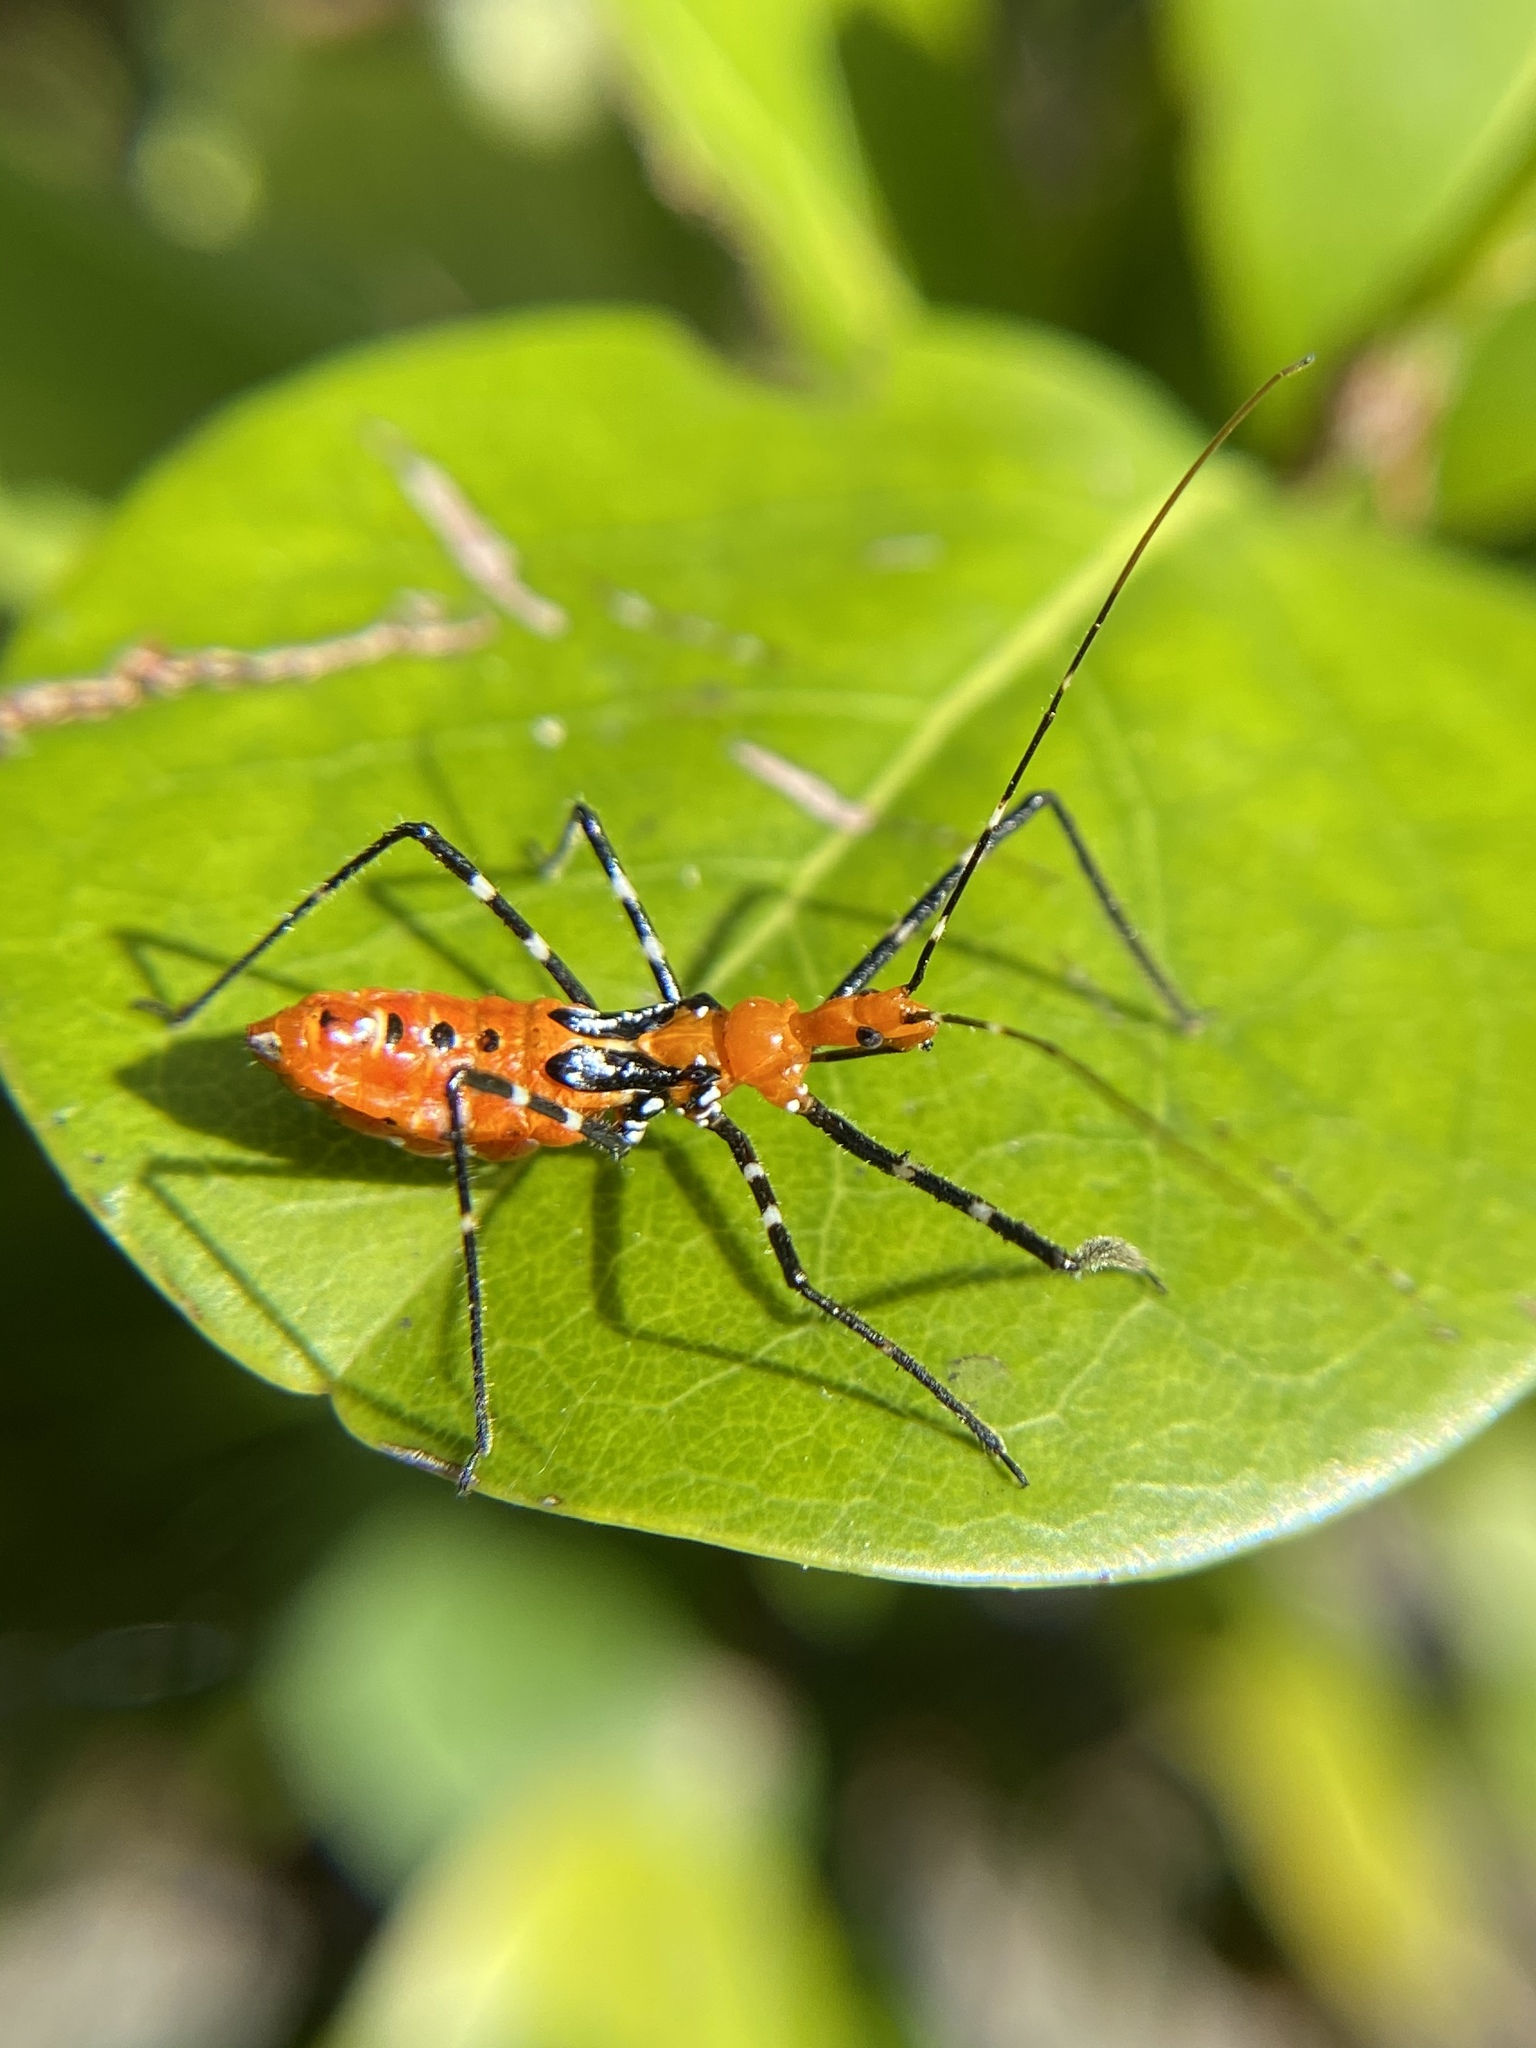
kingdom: Animalia
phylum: Arthropoda
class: Insecta
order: Hemiptera
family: Reduviidae
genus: Zelus
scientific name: Zelus longipes
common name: Milkweed assassin bug
